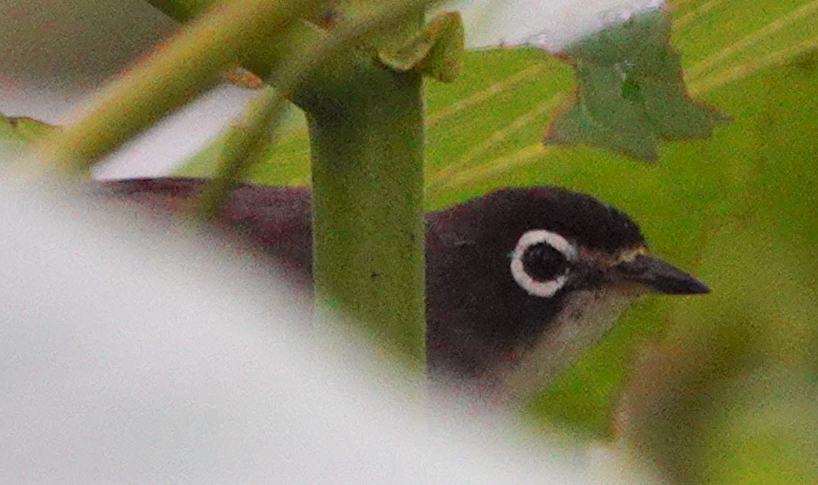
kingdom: Animalia
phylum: Chordata
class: Aves
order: Passeriformes
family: Zosteropidae
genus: Zosterops
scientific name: Zosterops dehaani
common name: Morotai white-eye
